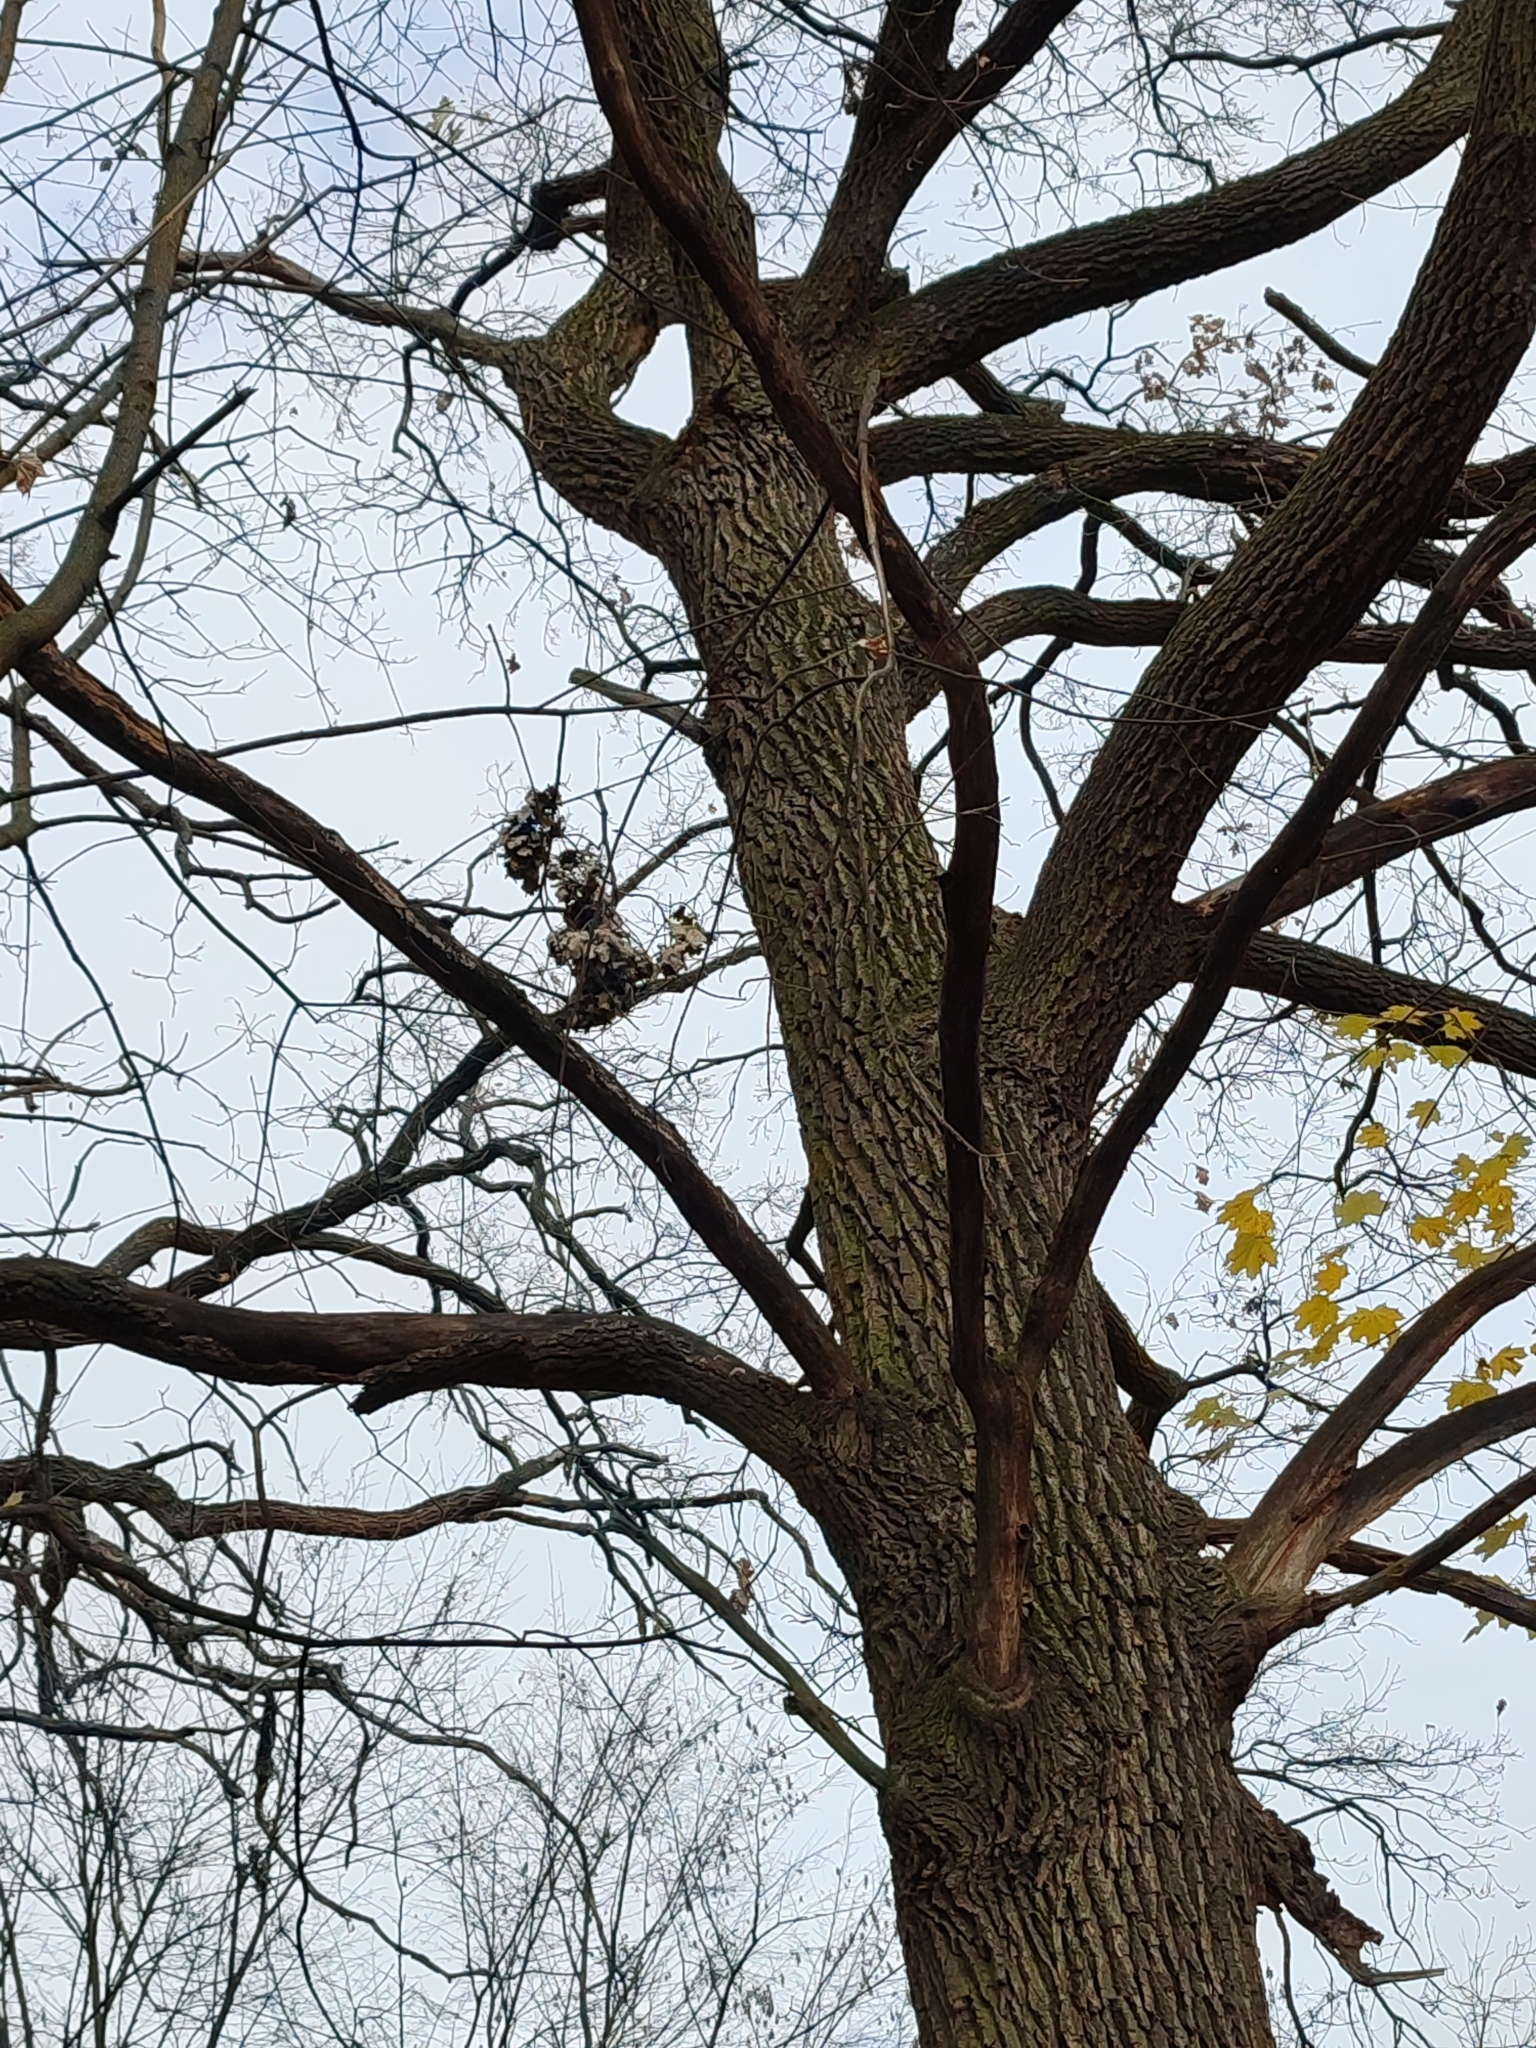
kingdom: Plantae
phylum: Tracheophyta
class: Magnoliopsida
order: Fagales
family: Fagaceae
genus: Quercus
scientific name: Quercus robur
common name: Pedunculate oak
